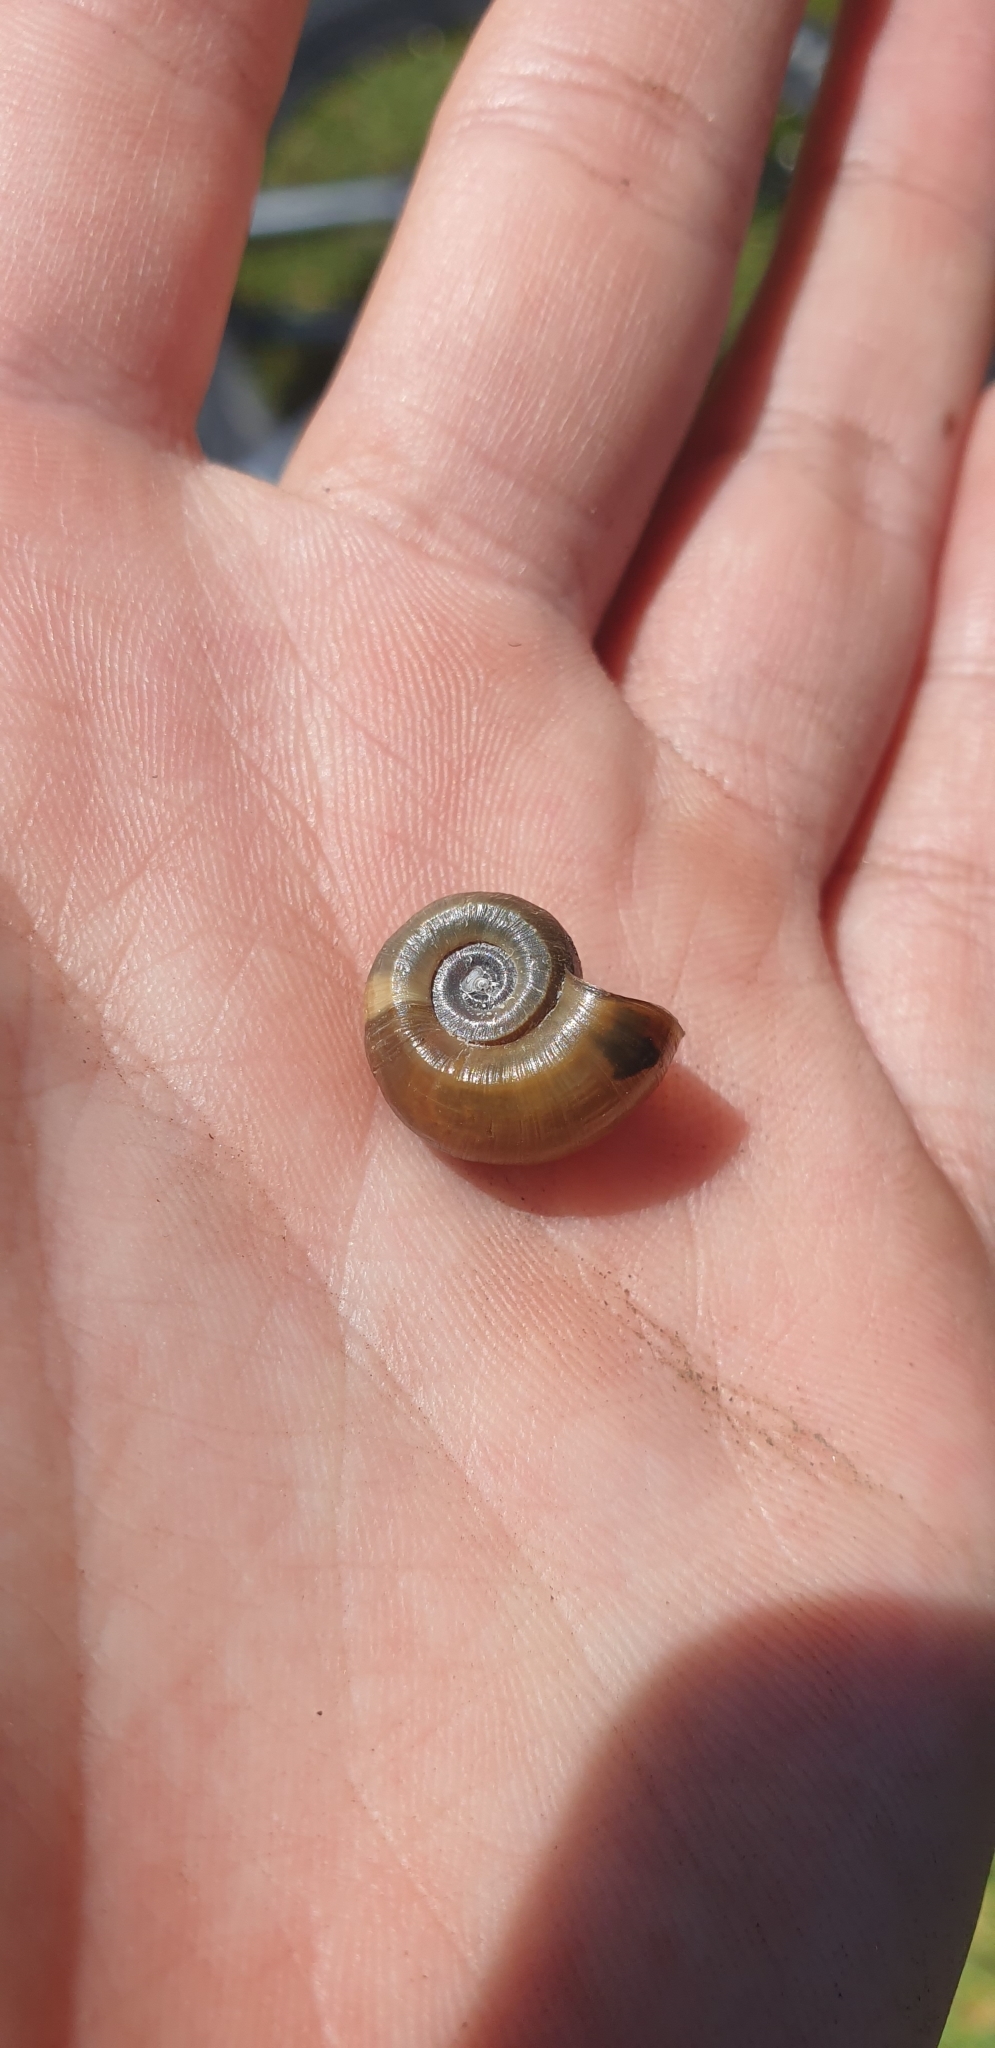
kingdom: Animalia
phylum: Mollusca
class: Gastropoda
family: Planorbidae
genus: Planorbarius
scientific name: Planorbarius corneus
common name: Great ramshorn
